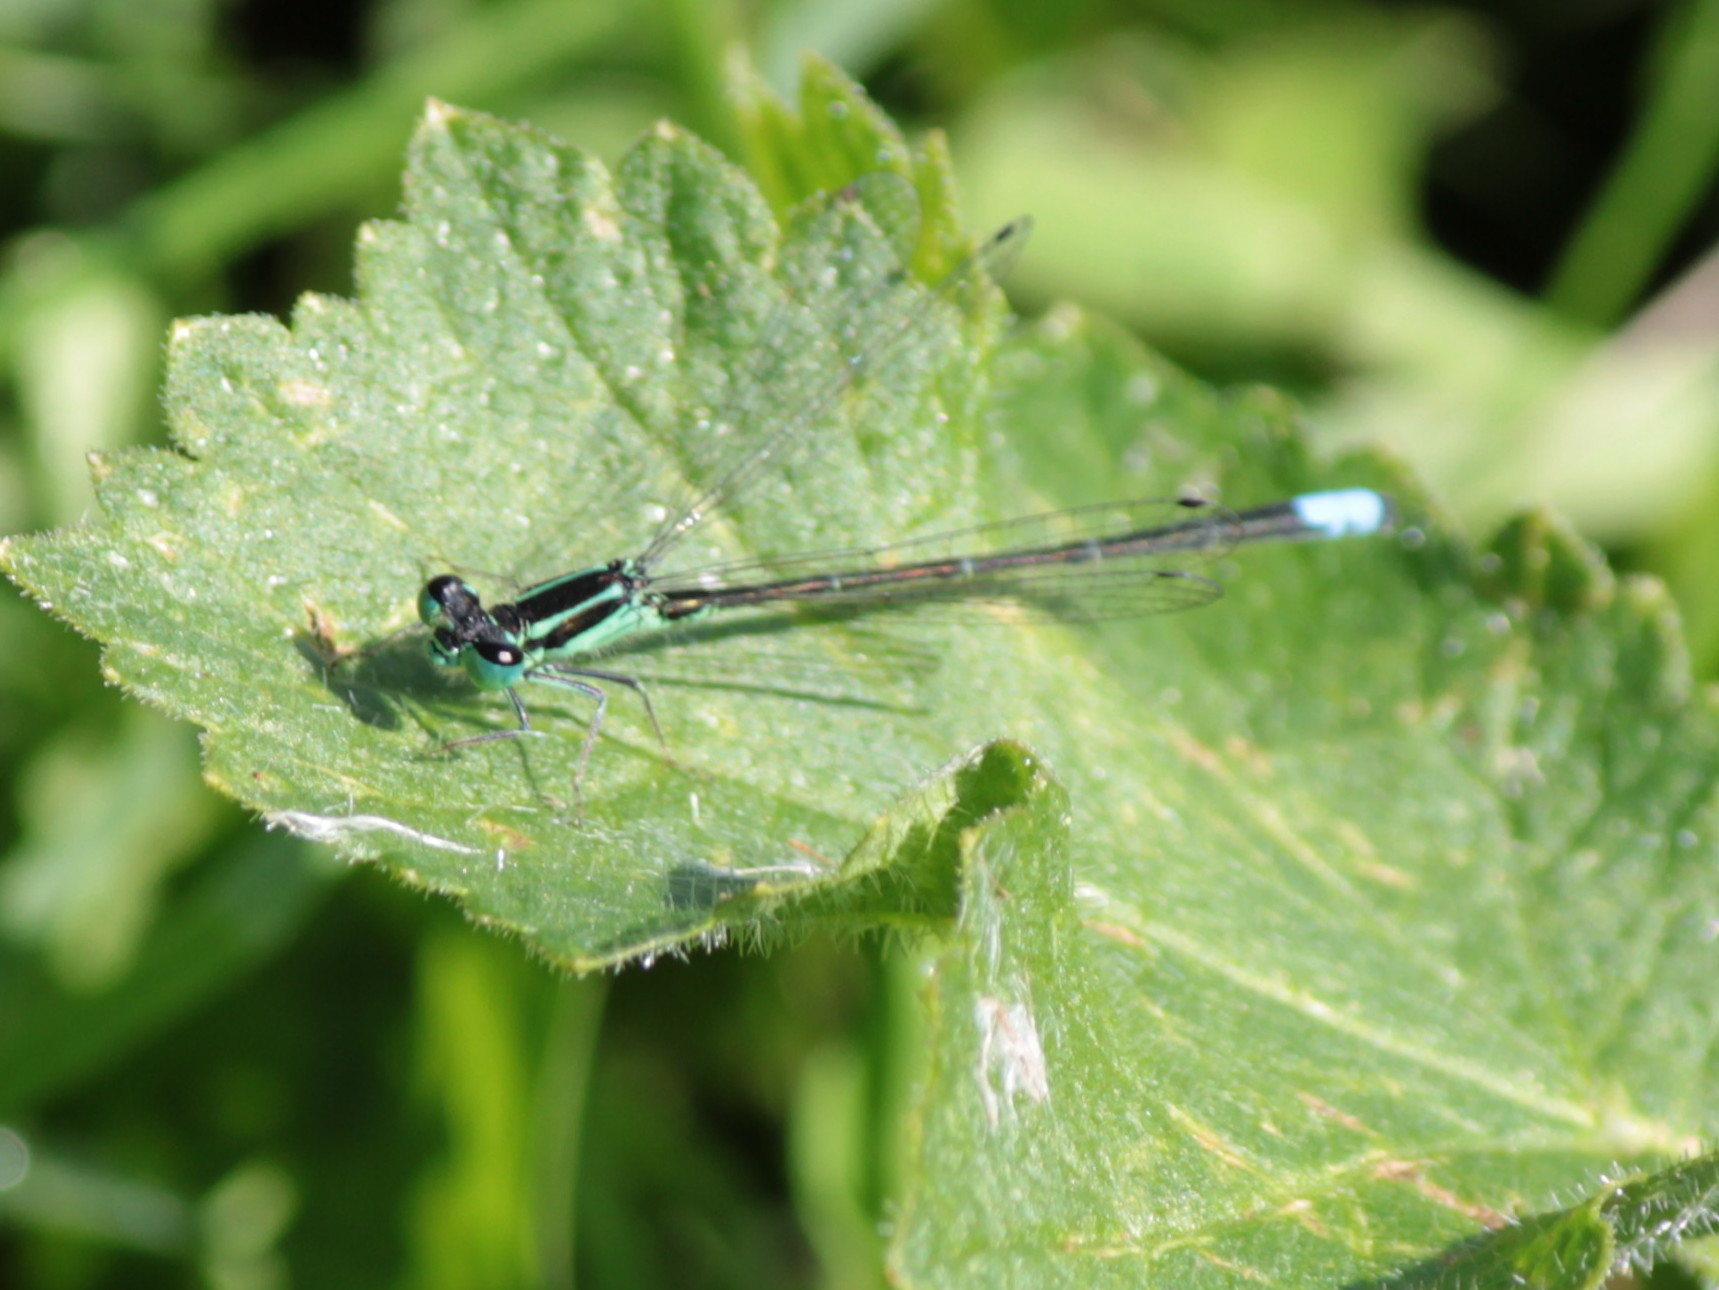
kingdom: Animalia
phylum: Arthropoda
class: Insecta
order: Odonata
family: Coenagrionidae
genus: Ischnura
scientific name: Ischnura verticalis
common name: Eastern forktail
